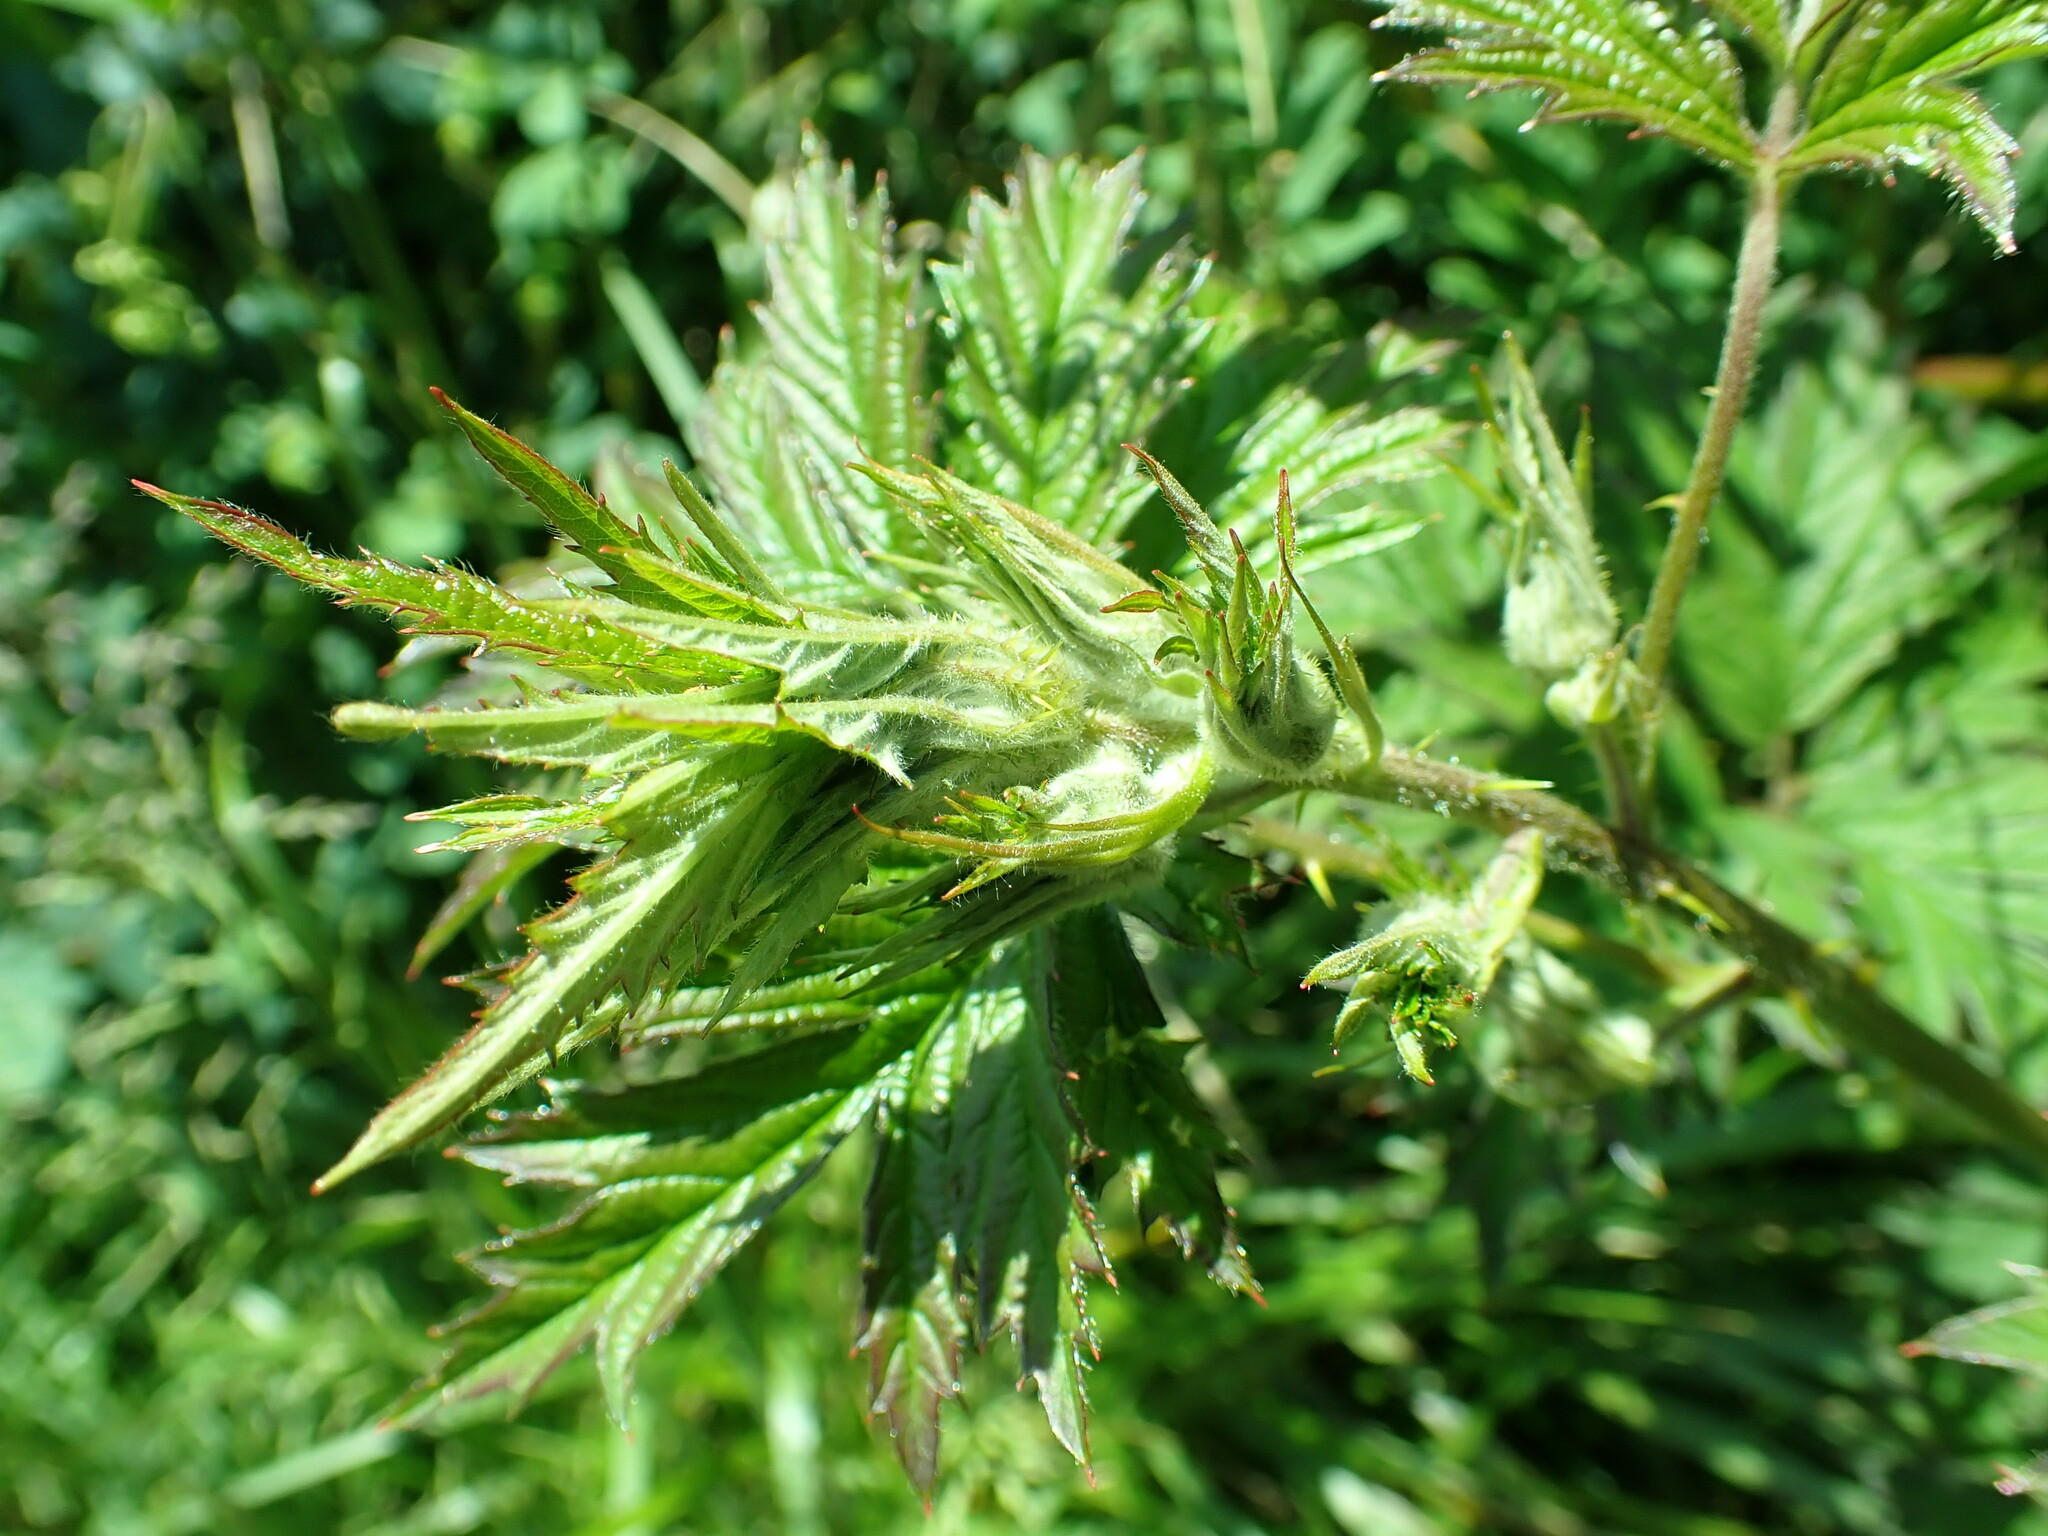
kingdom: Plantae
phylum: Tracheophyta
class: Magnoliopsida
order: Rosales
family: Rosaceae
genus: Rubus
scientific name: Rubus laciniatus
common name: Evergreen blackberry
